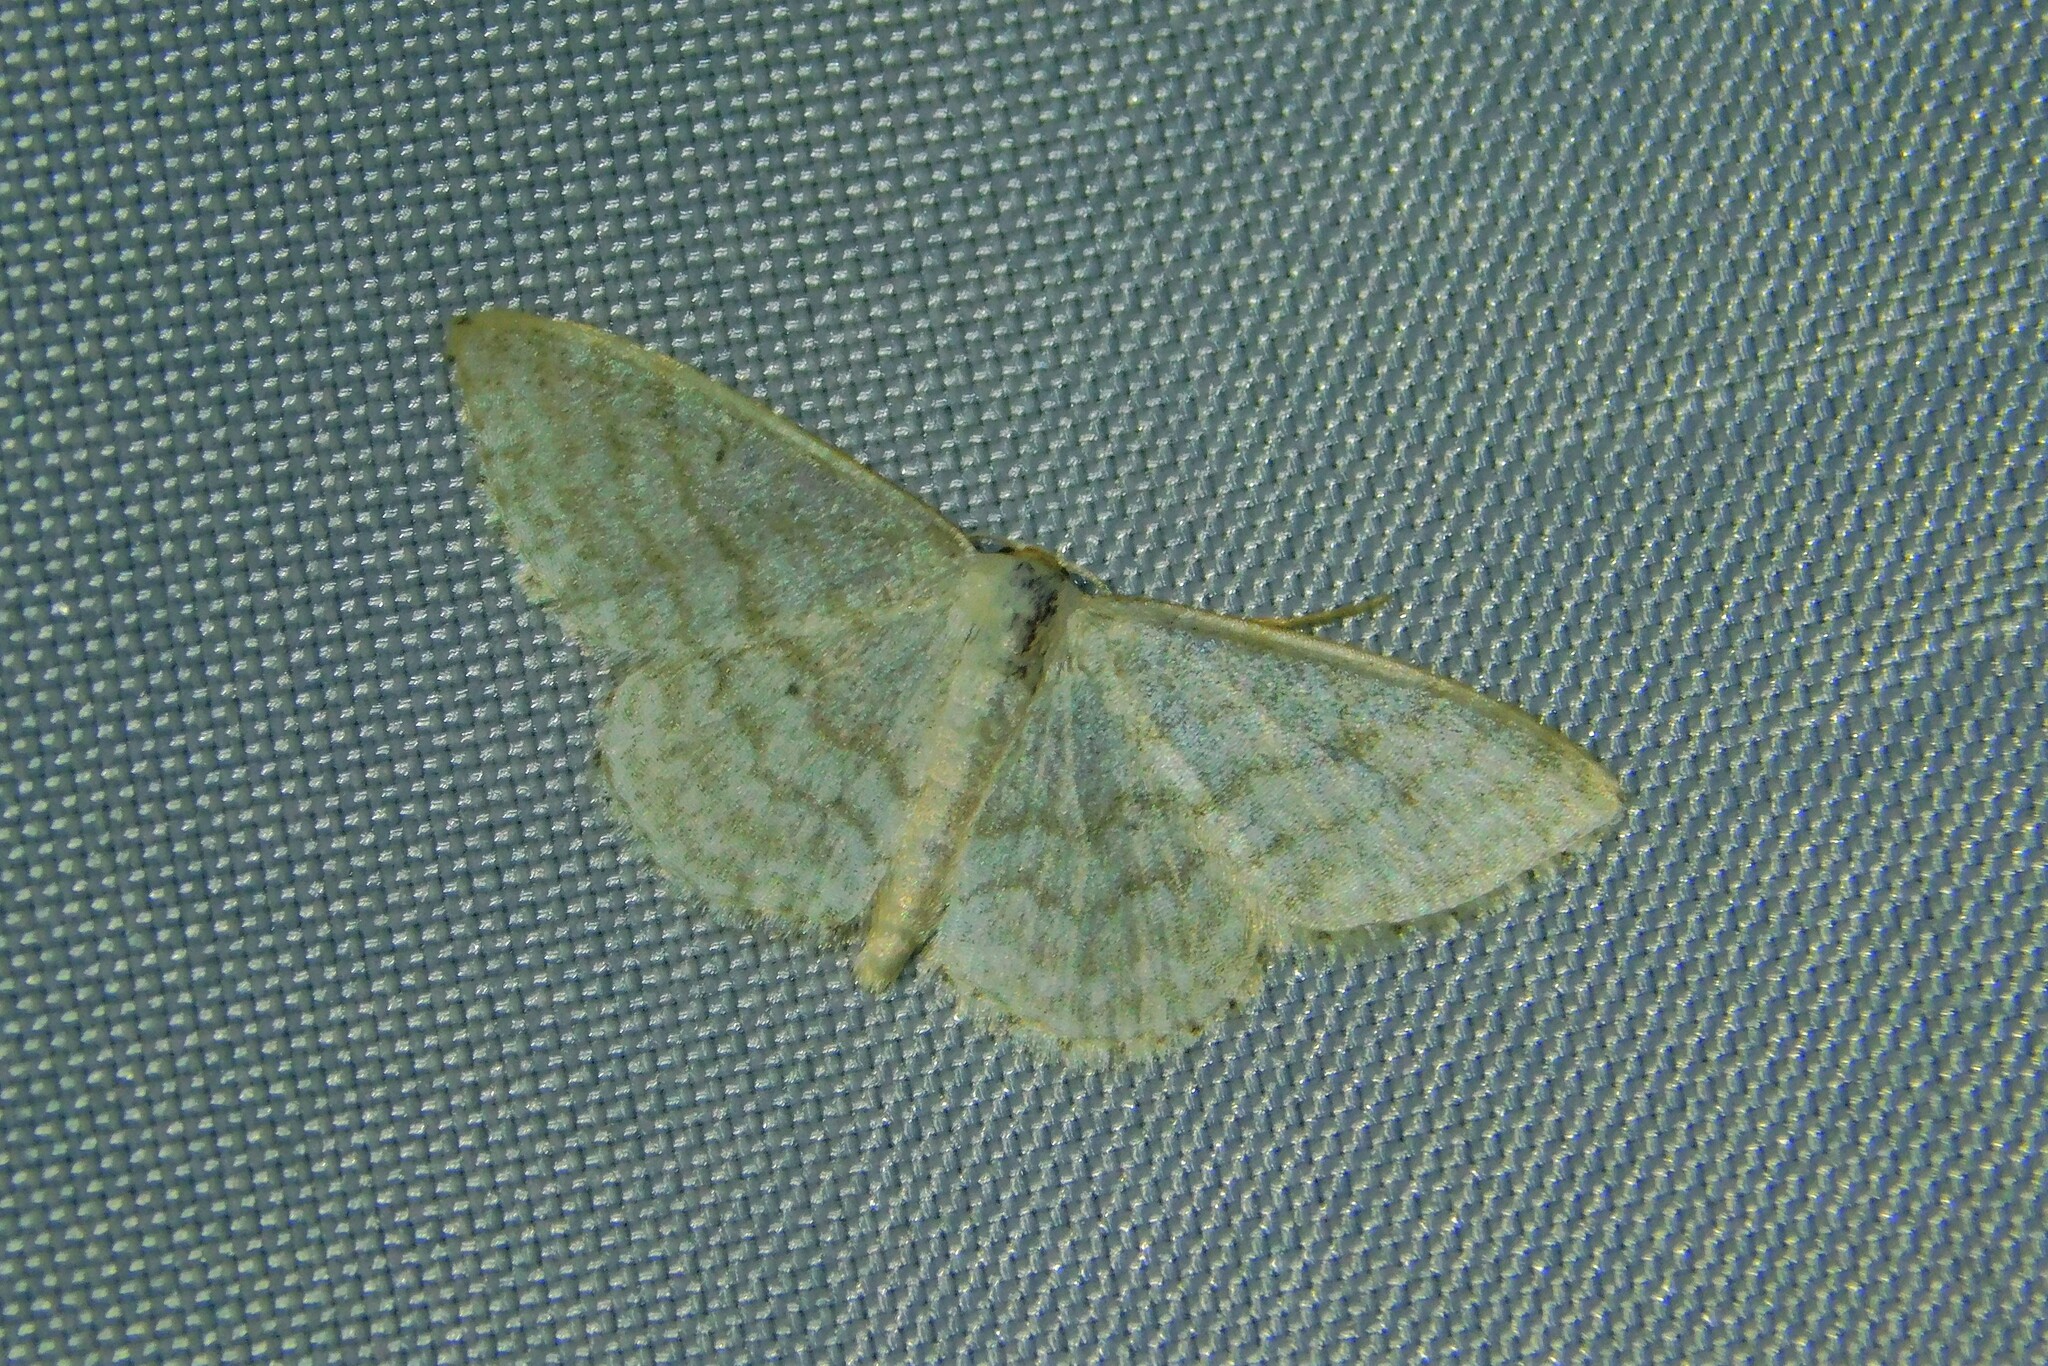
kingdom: Animalia
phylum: Arthropoda
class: Insecta
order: Lepidoptera
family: Geometridae
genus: Idaea
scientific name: Idaea subsericeata
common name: Satin wave
